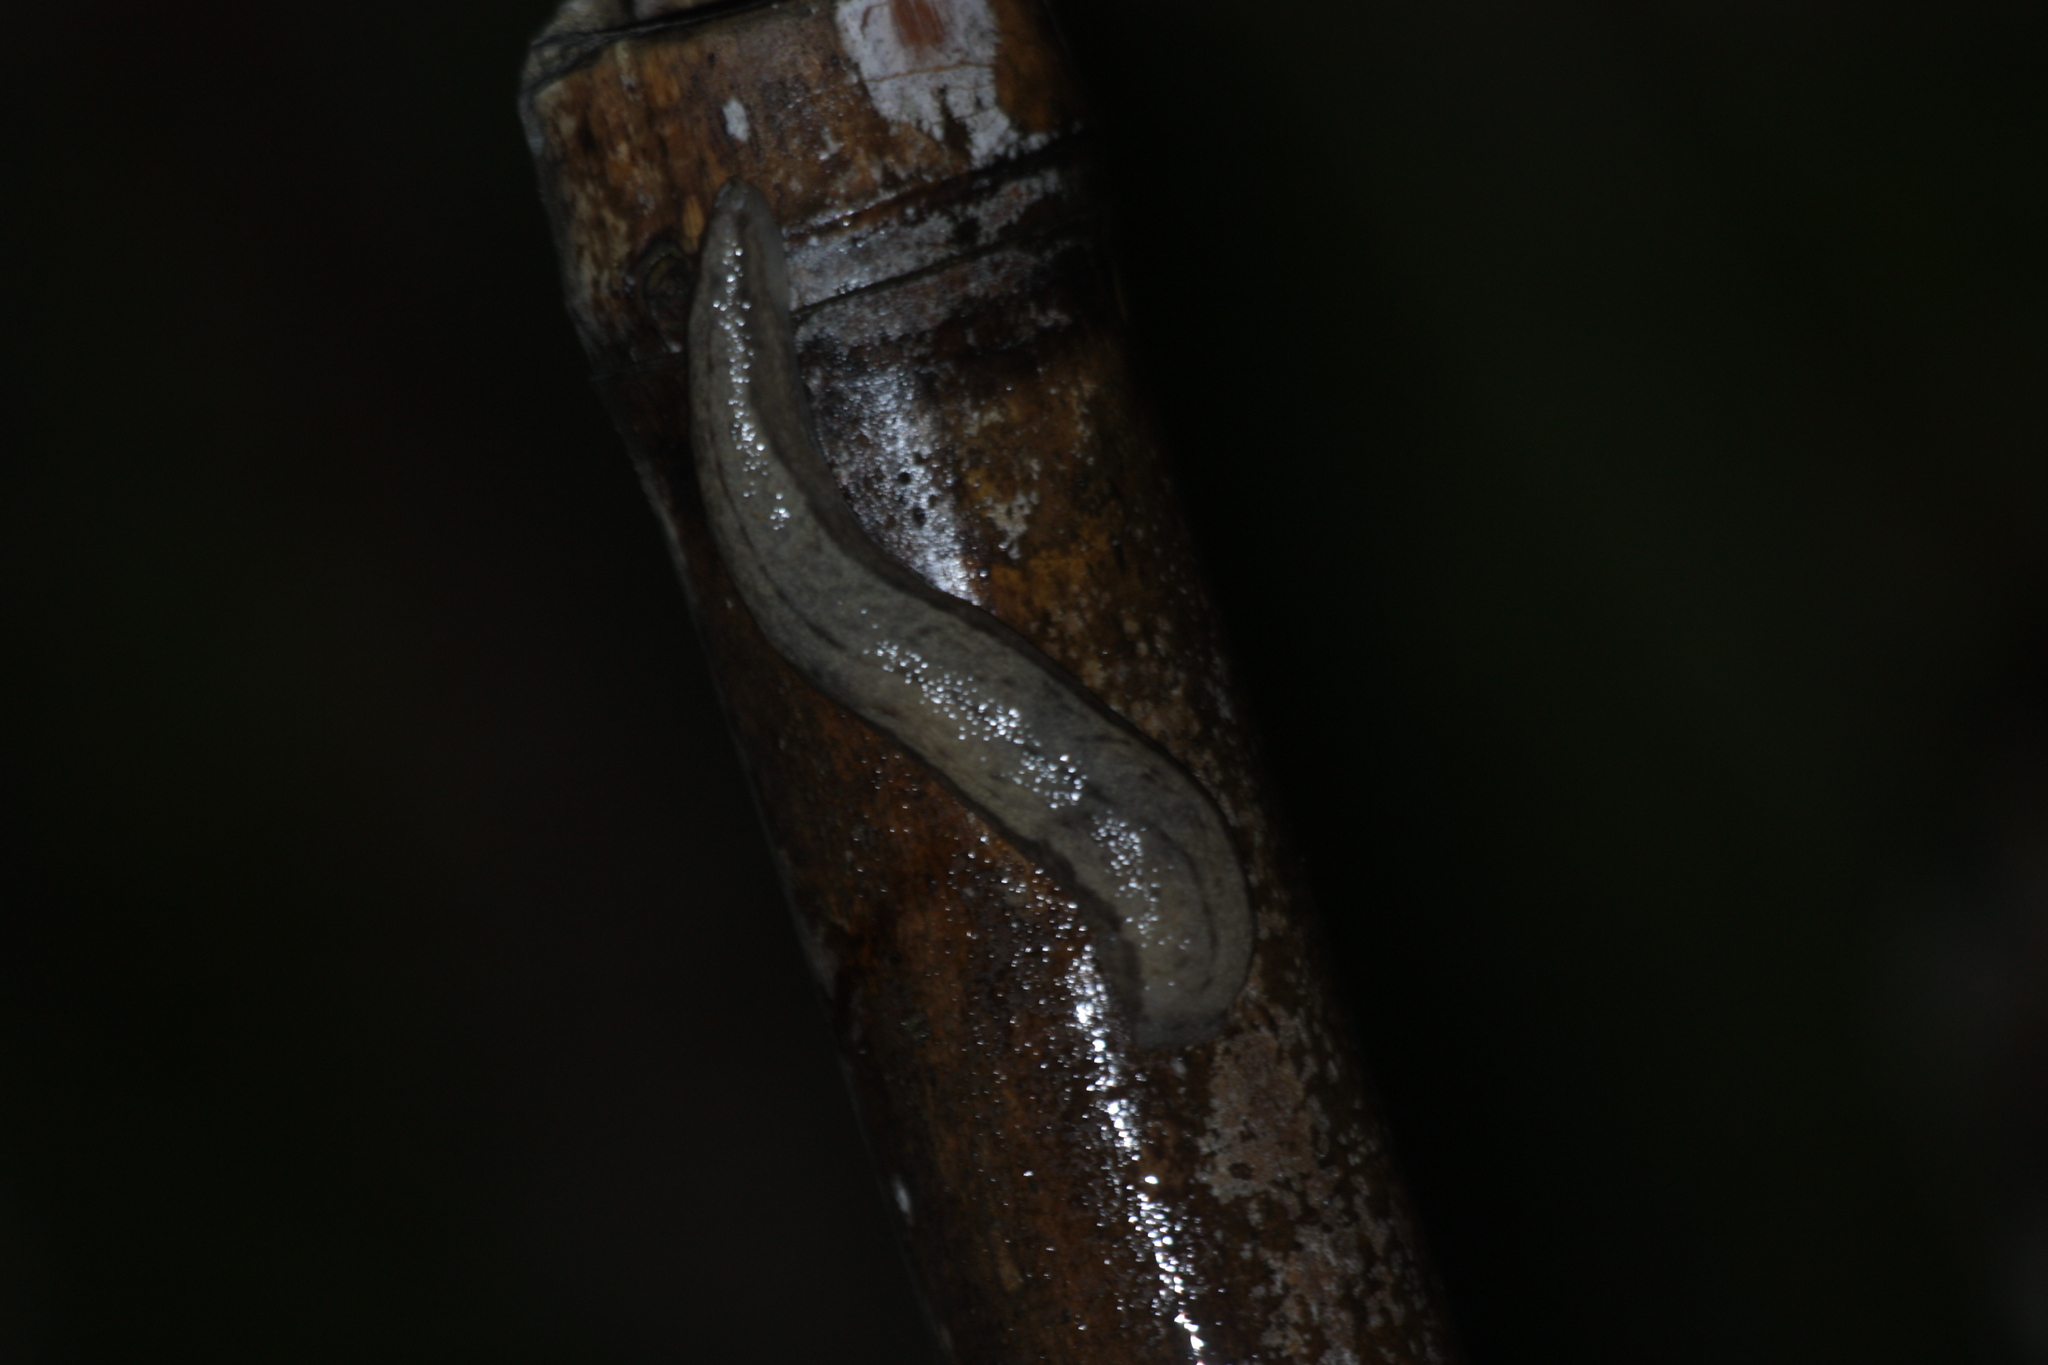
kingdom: Animalia
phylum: Mollusca
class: Gastropoda
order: Stylommatophora
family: Philomycidae
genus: Meghimatium
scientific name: Meghimatium bilineatum
